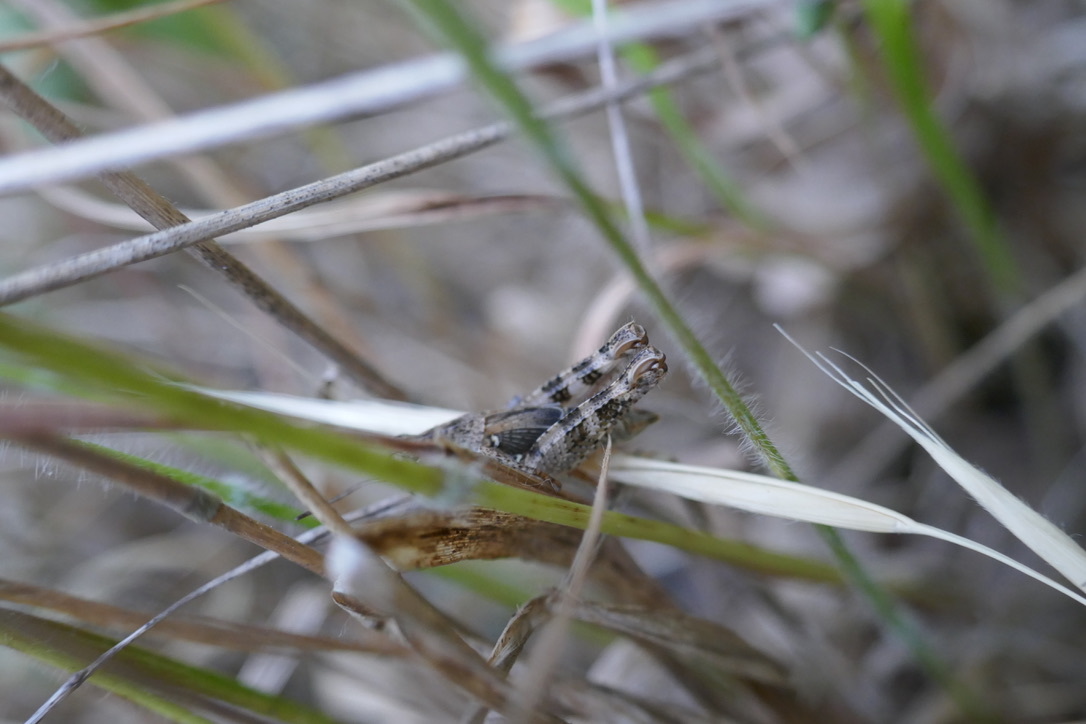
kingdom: Animalia
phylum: Arthropoda
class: Insecta
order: Orthoptera
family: Acrididae
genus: Calliptamus
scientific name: Calliptamus italicus
